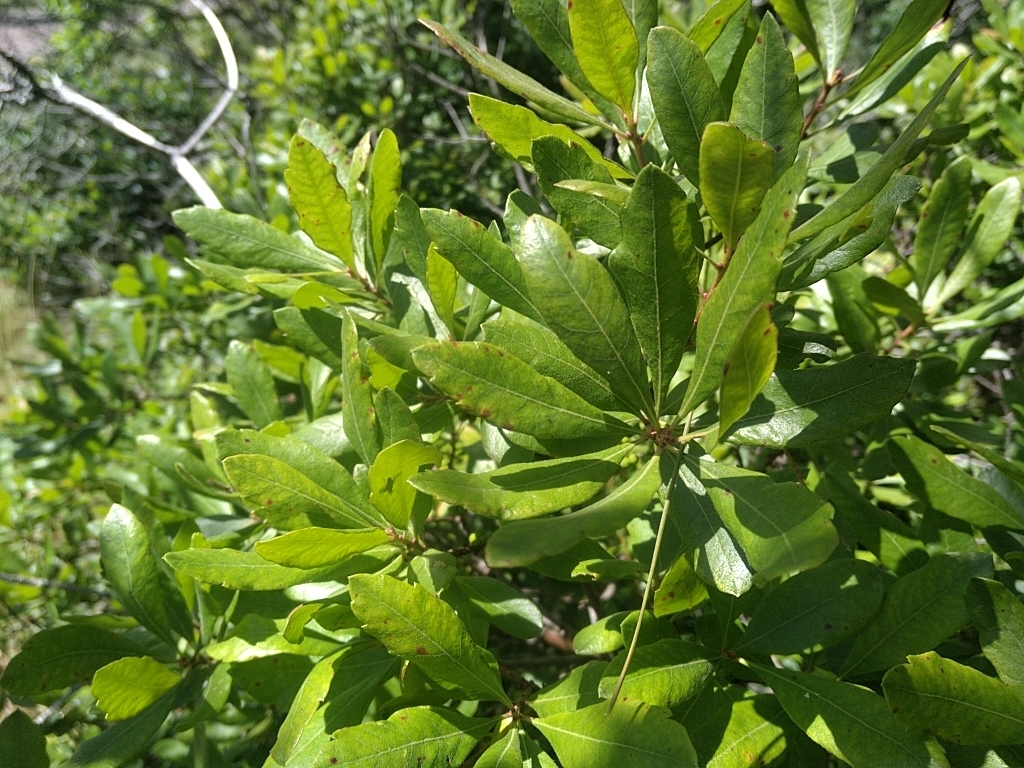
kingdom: Plantae
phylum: Tracheophyta
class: Magnoliopsida
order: Fagales
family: Myricaceae
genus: Morella
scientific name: Morella pensylvanica
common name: Northern bayberry
